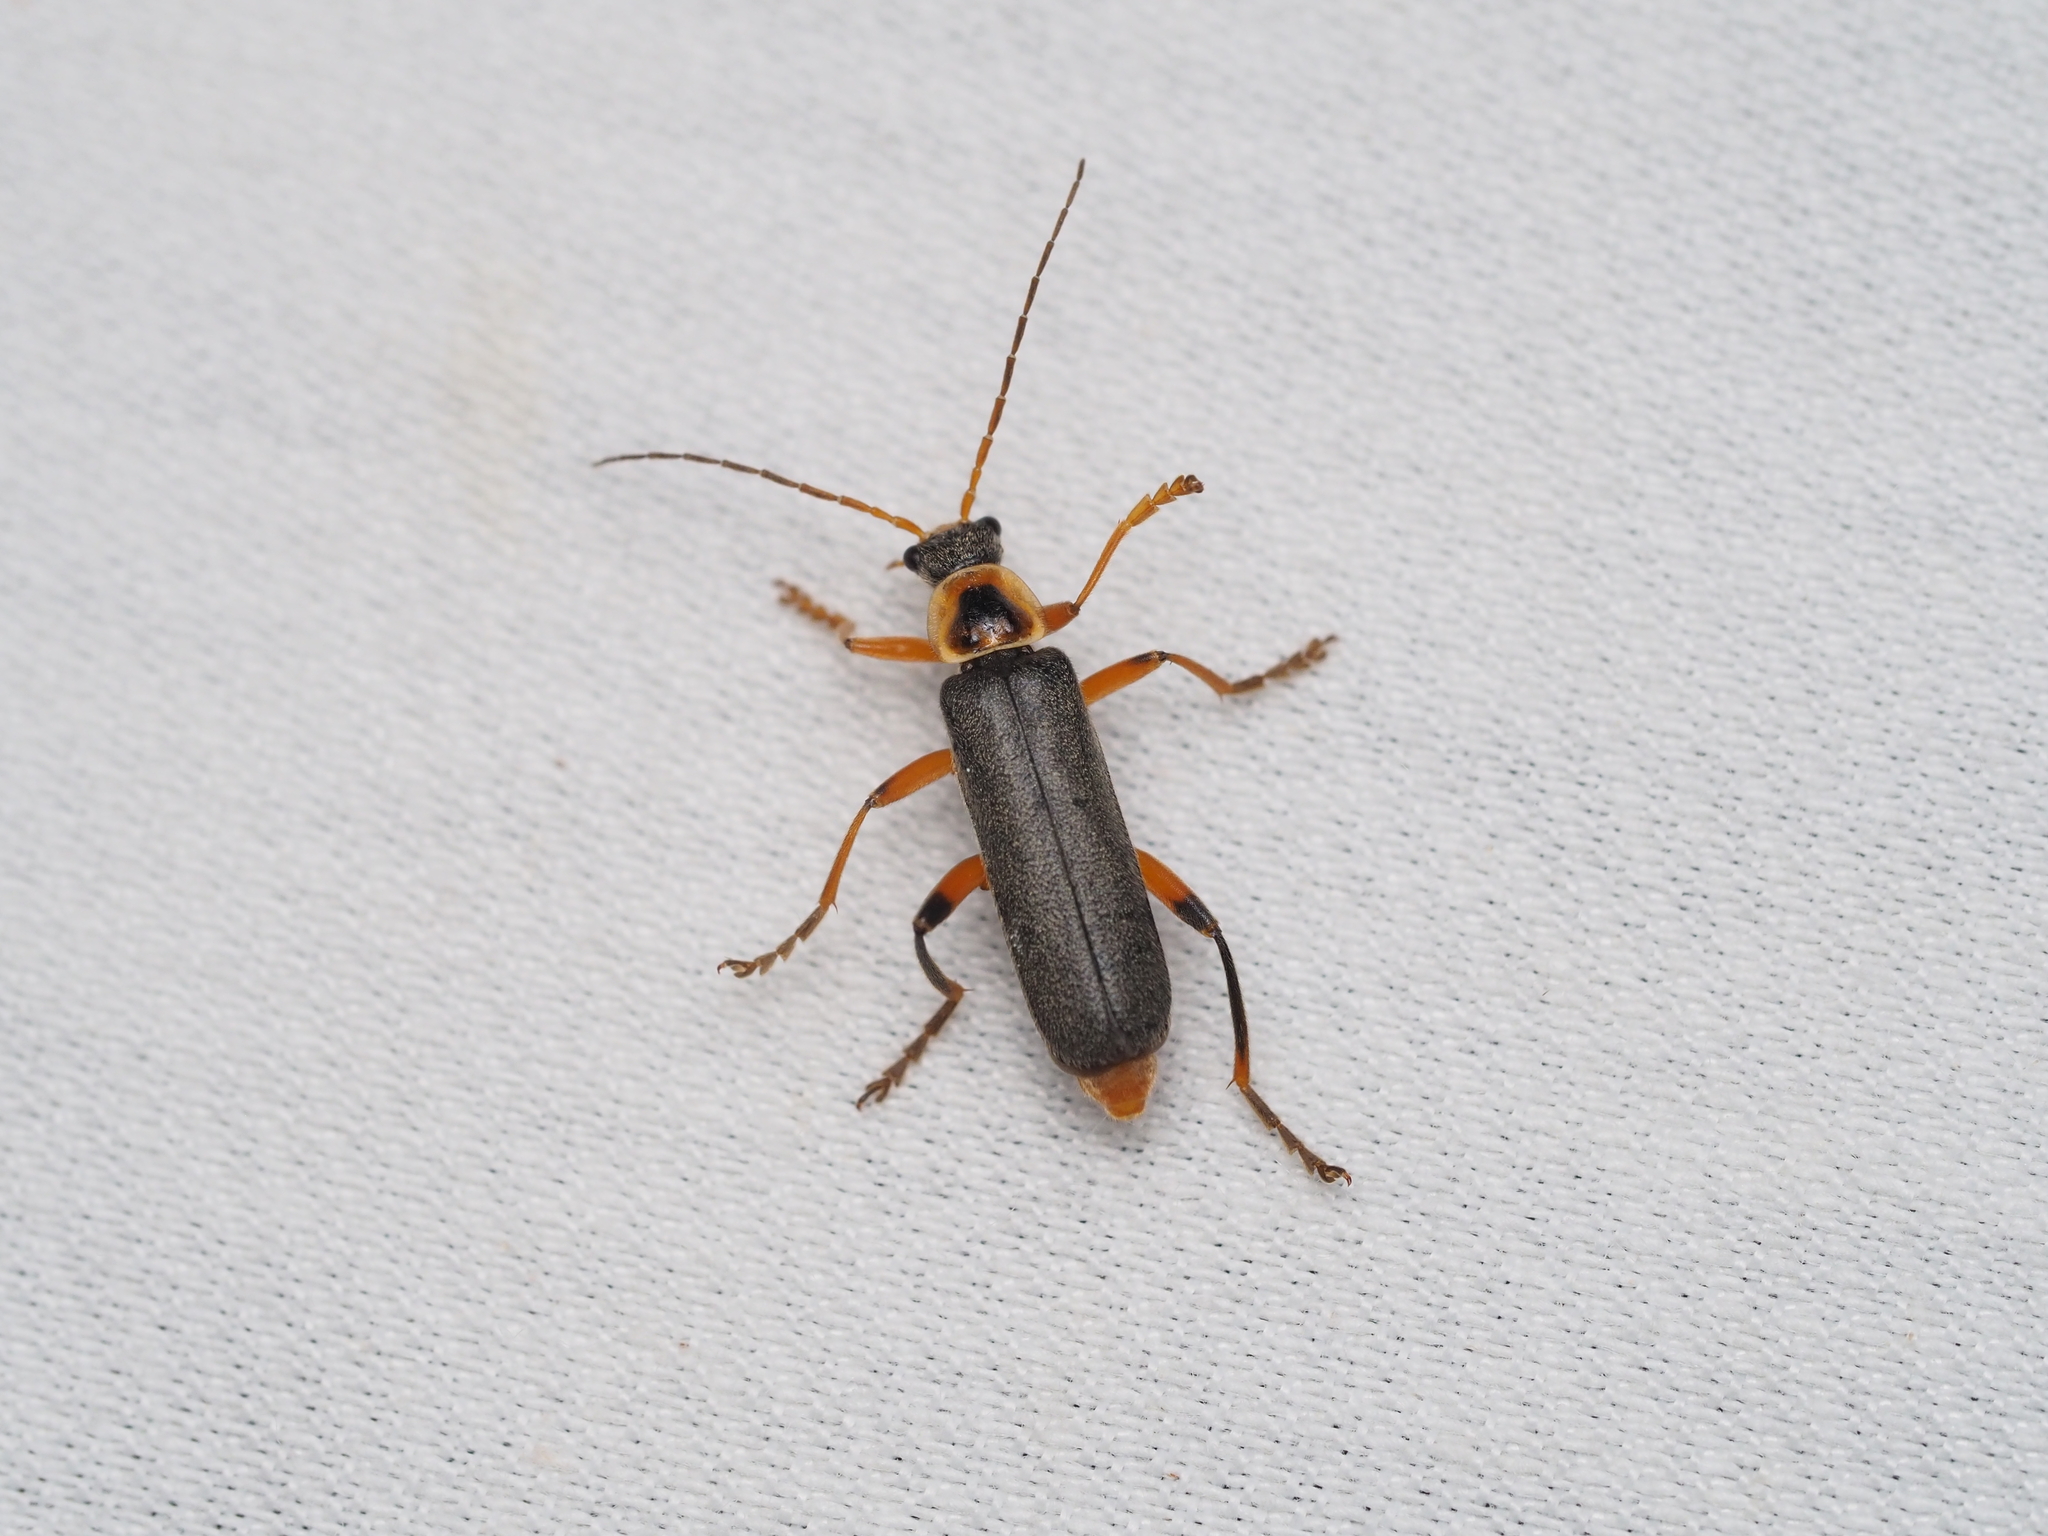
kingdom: Animalia
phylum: Arthropoda
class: Insecta
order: Coleoptera
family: Cantharidae
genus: Cantharis
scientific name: Cantharis nigricans
